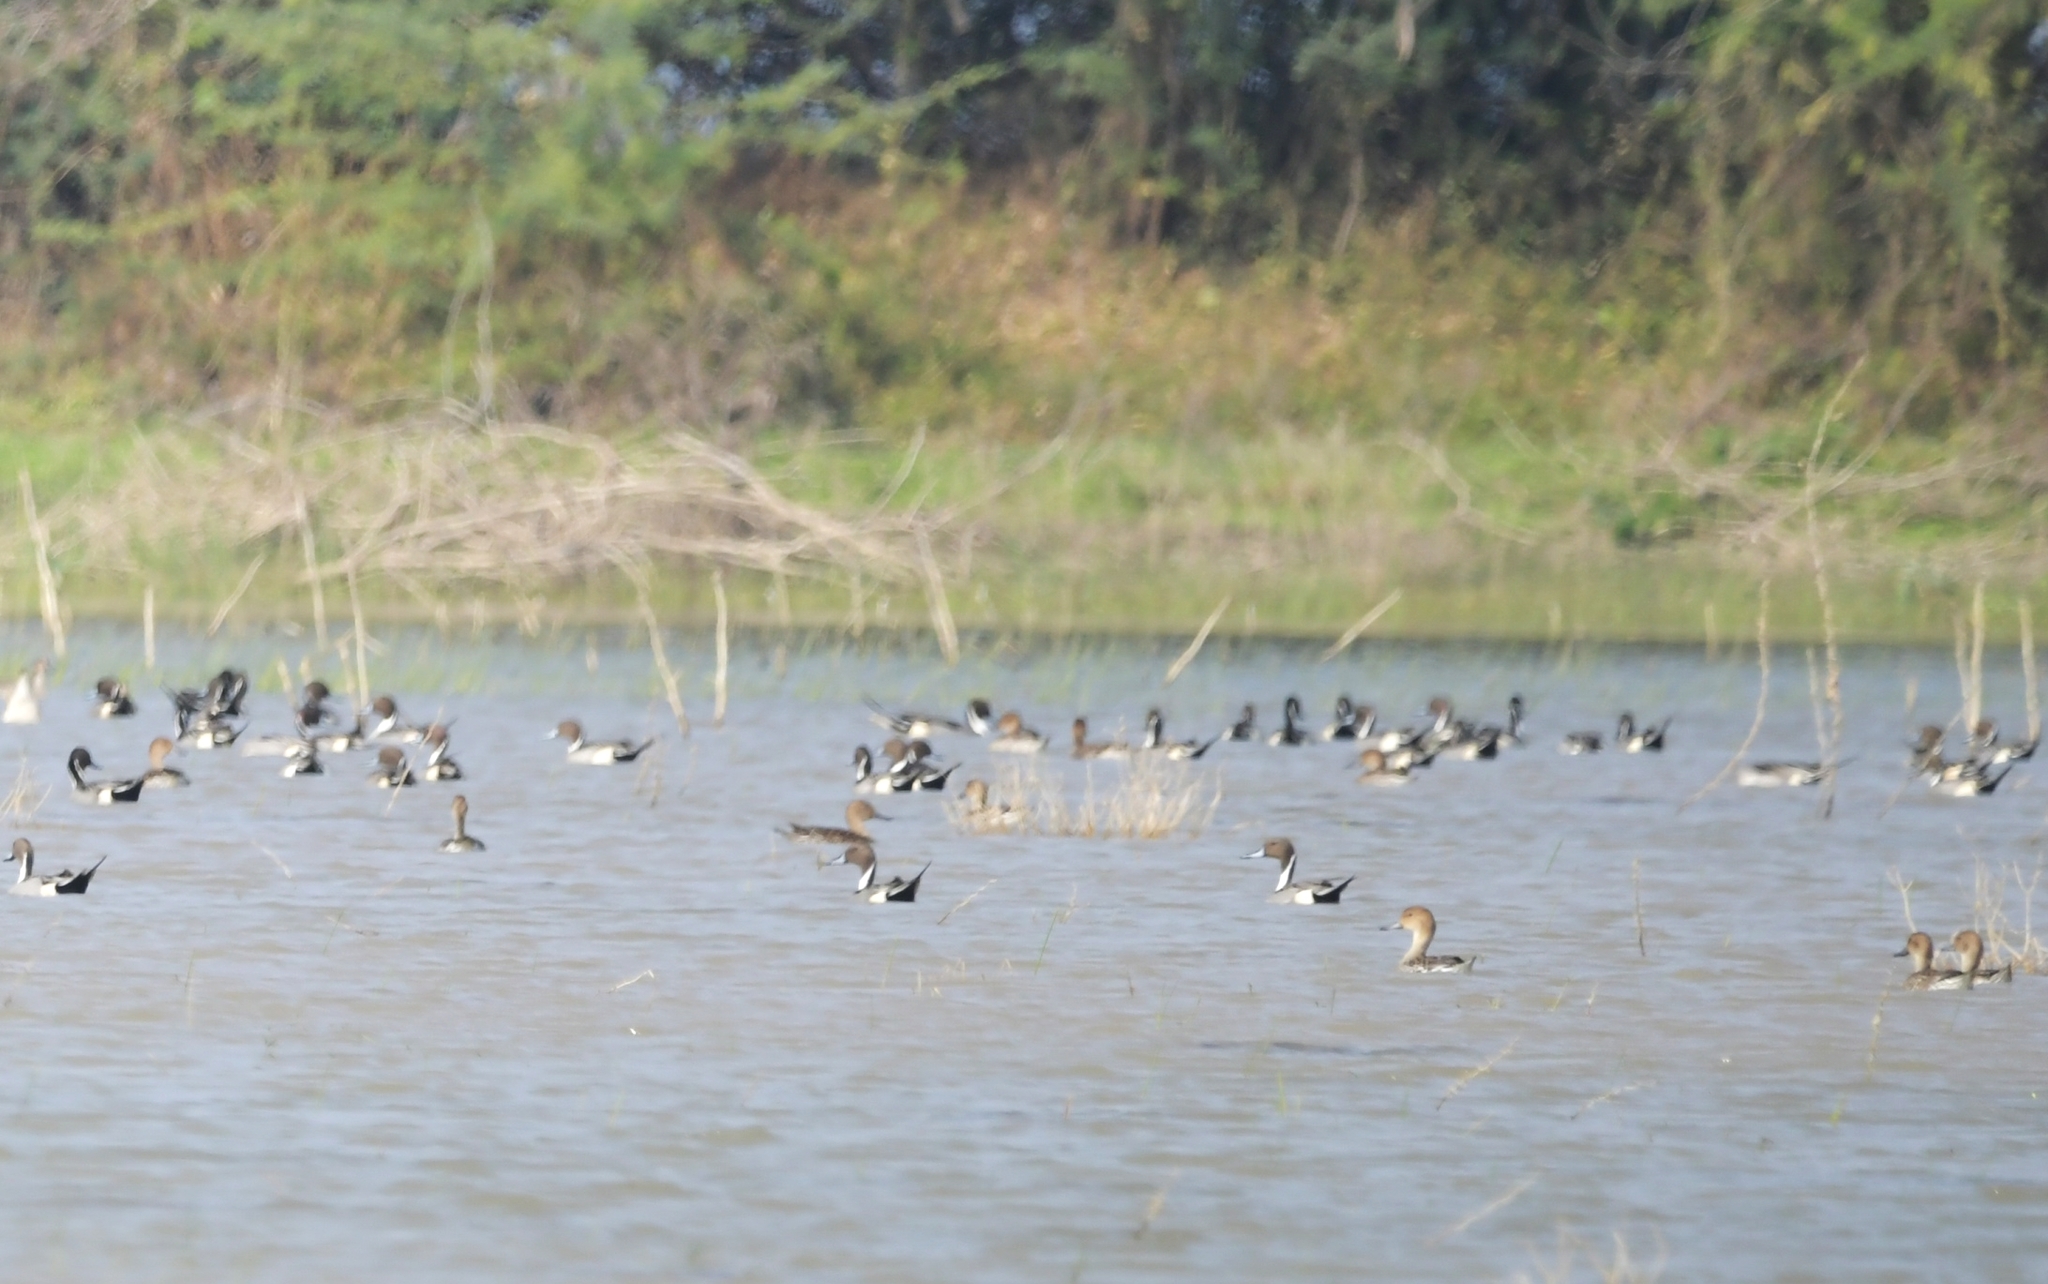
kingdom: Animalia
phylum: Chordata
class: Aves
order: Anseriformes
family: Anatidae
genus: Anas
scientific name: Anas acuta
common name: Northern pintail
